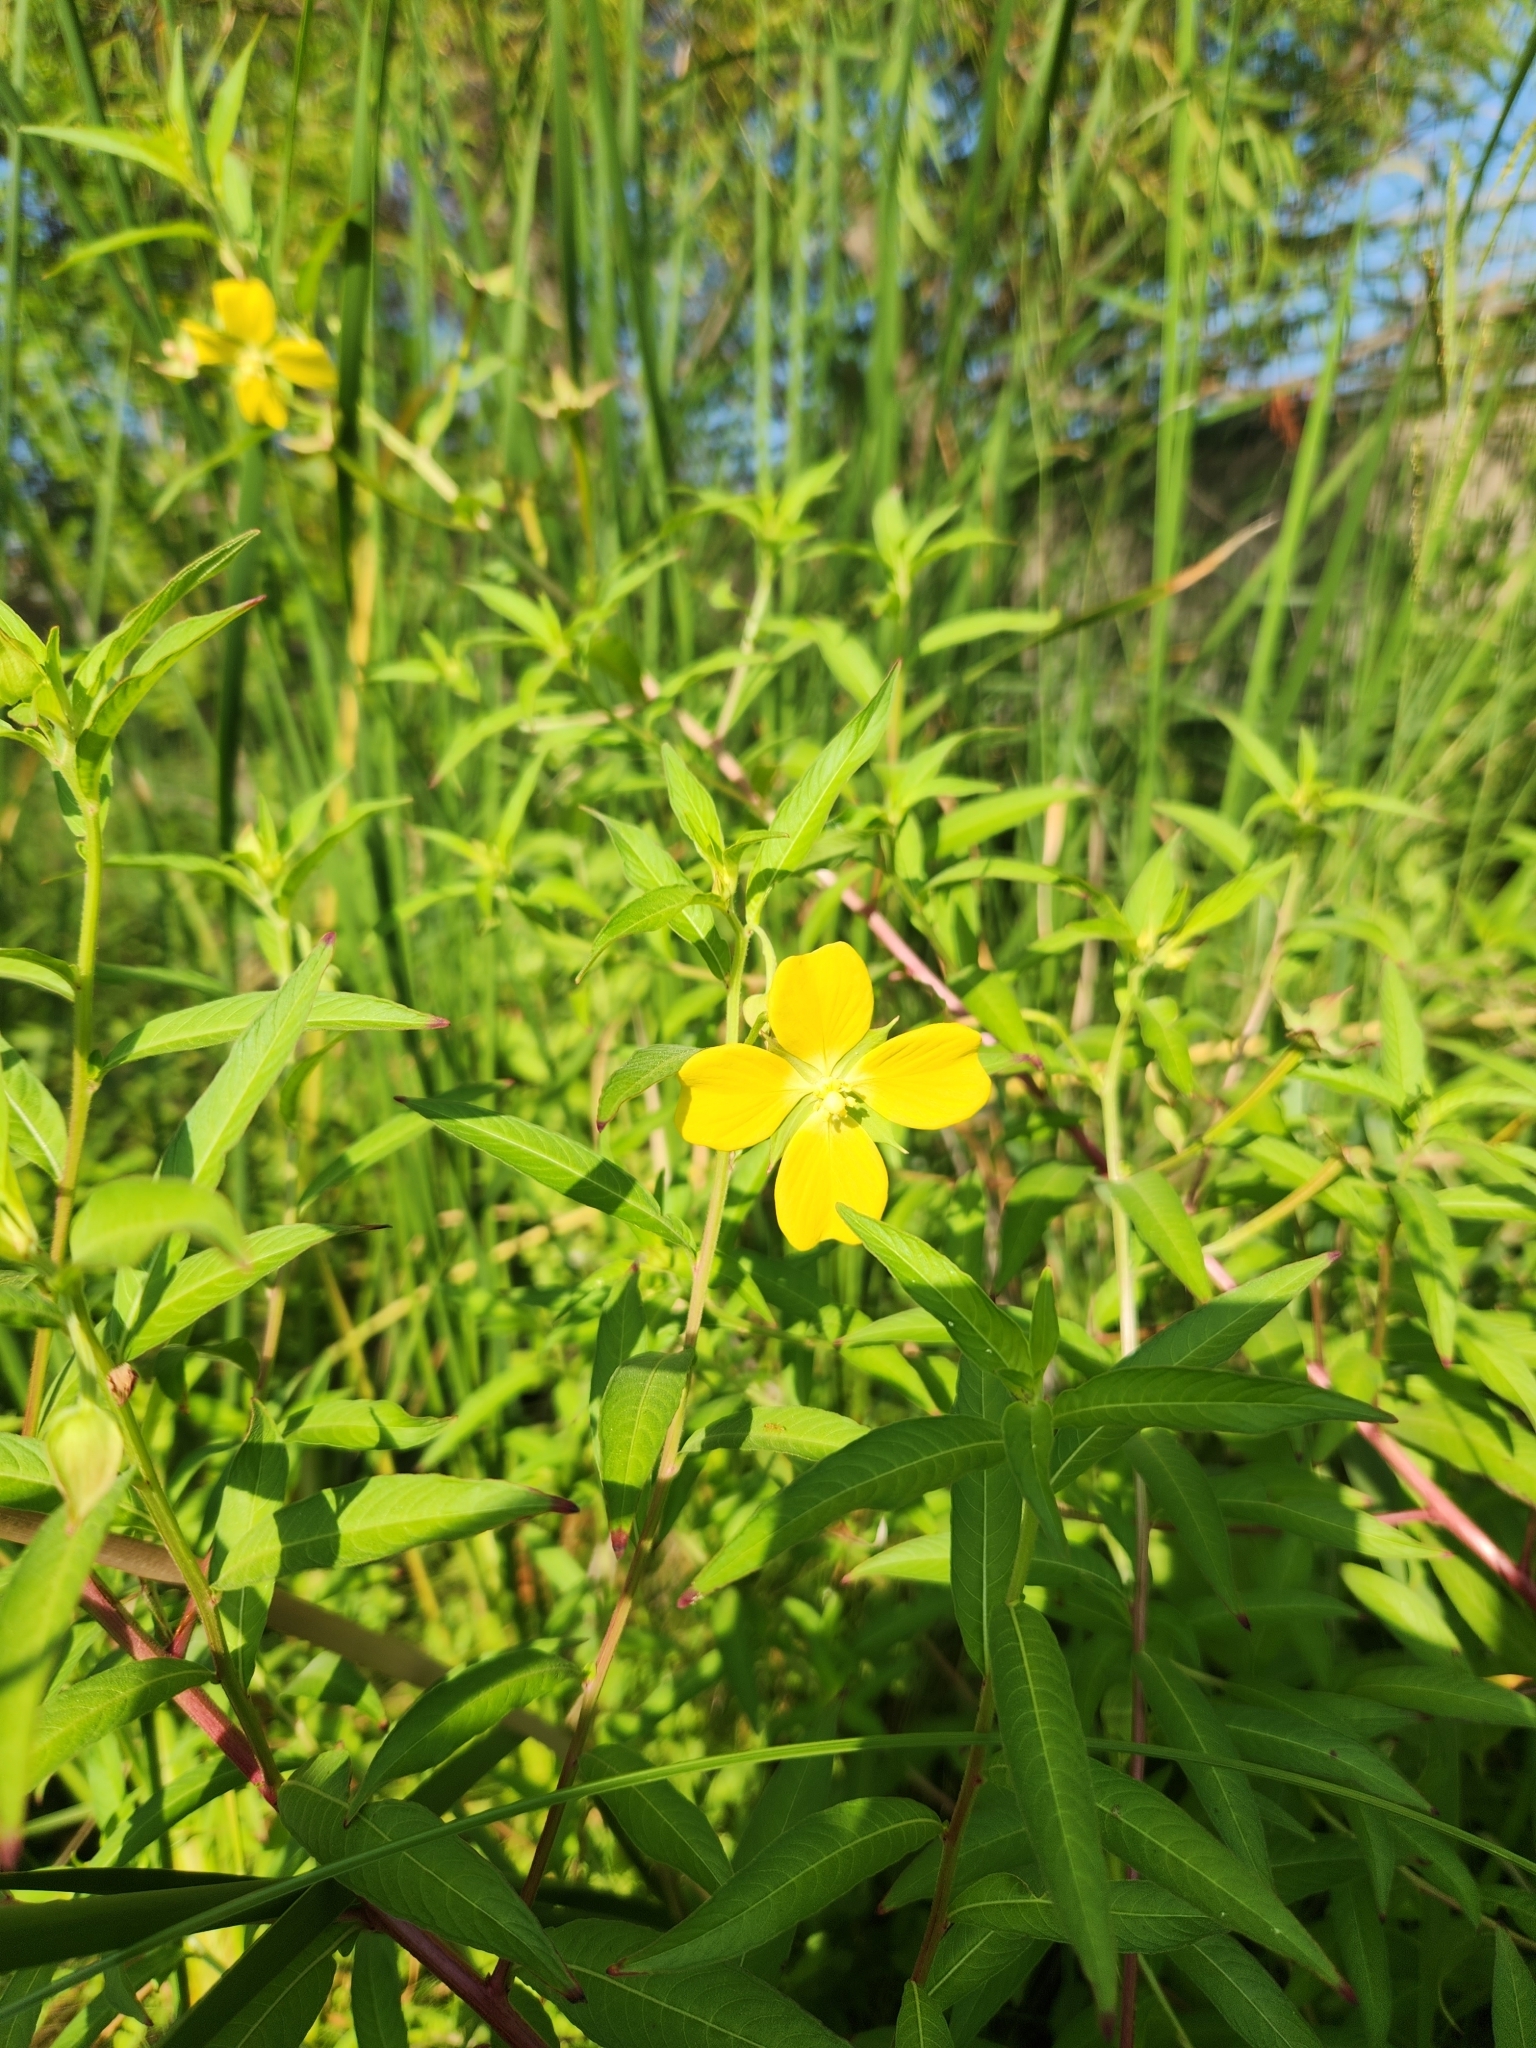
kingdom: Plantae
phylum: Tracheophyta
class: Magnoliopsida
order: Myrtales
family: Onagraceae
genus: Ludwigia
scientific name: Ludwigia octovalvis
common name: Water-primrose
